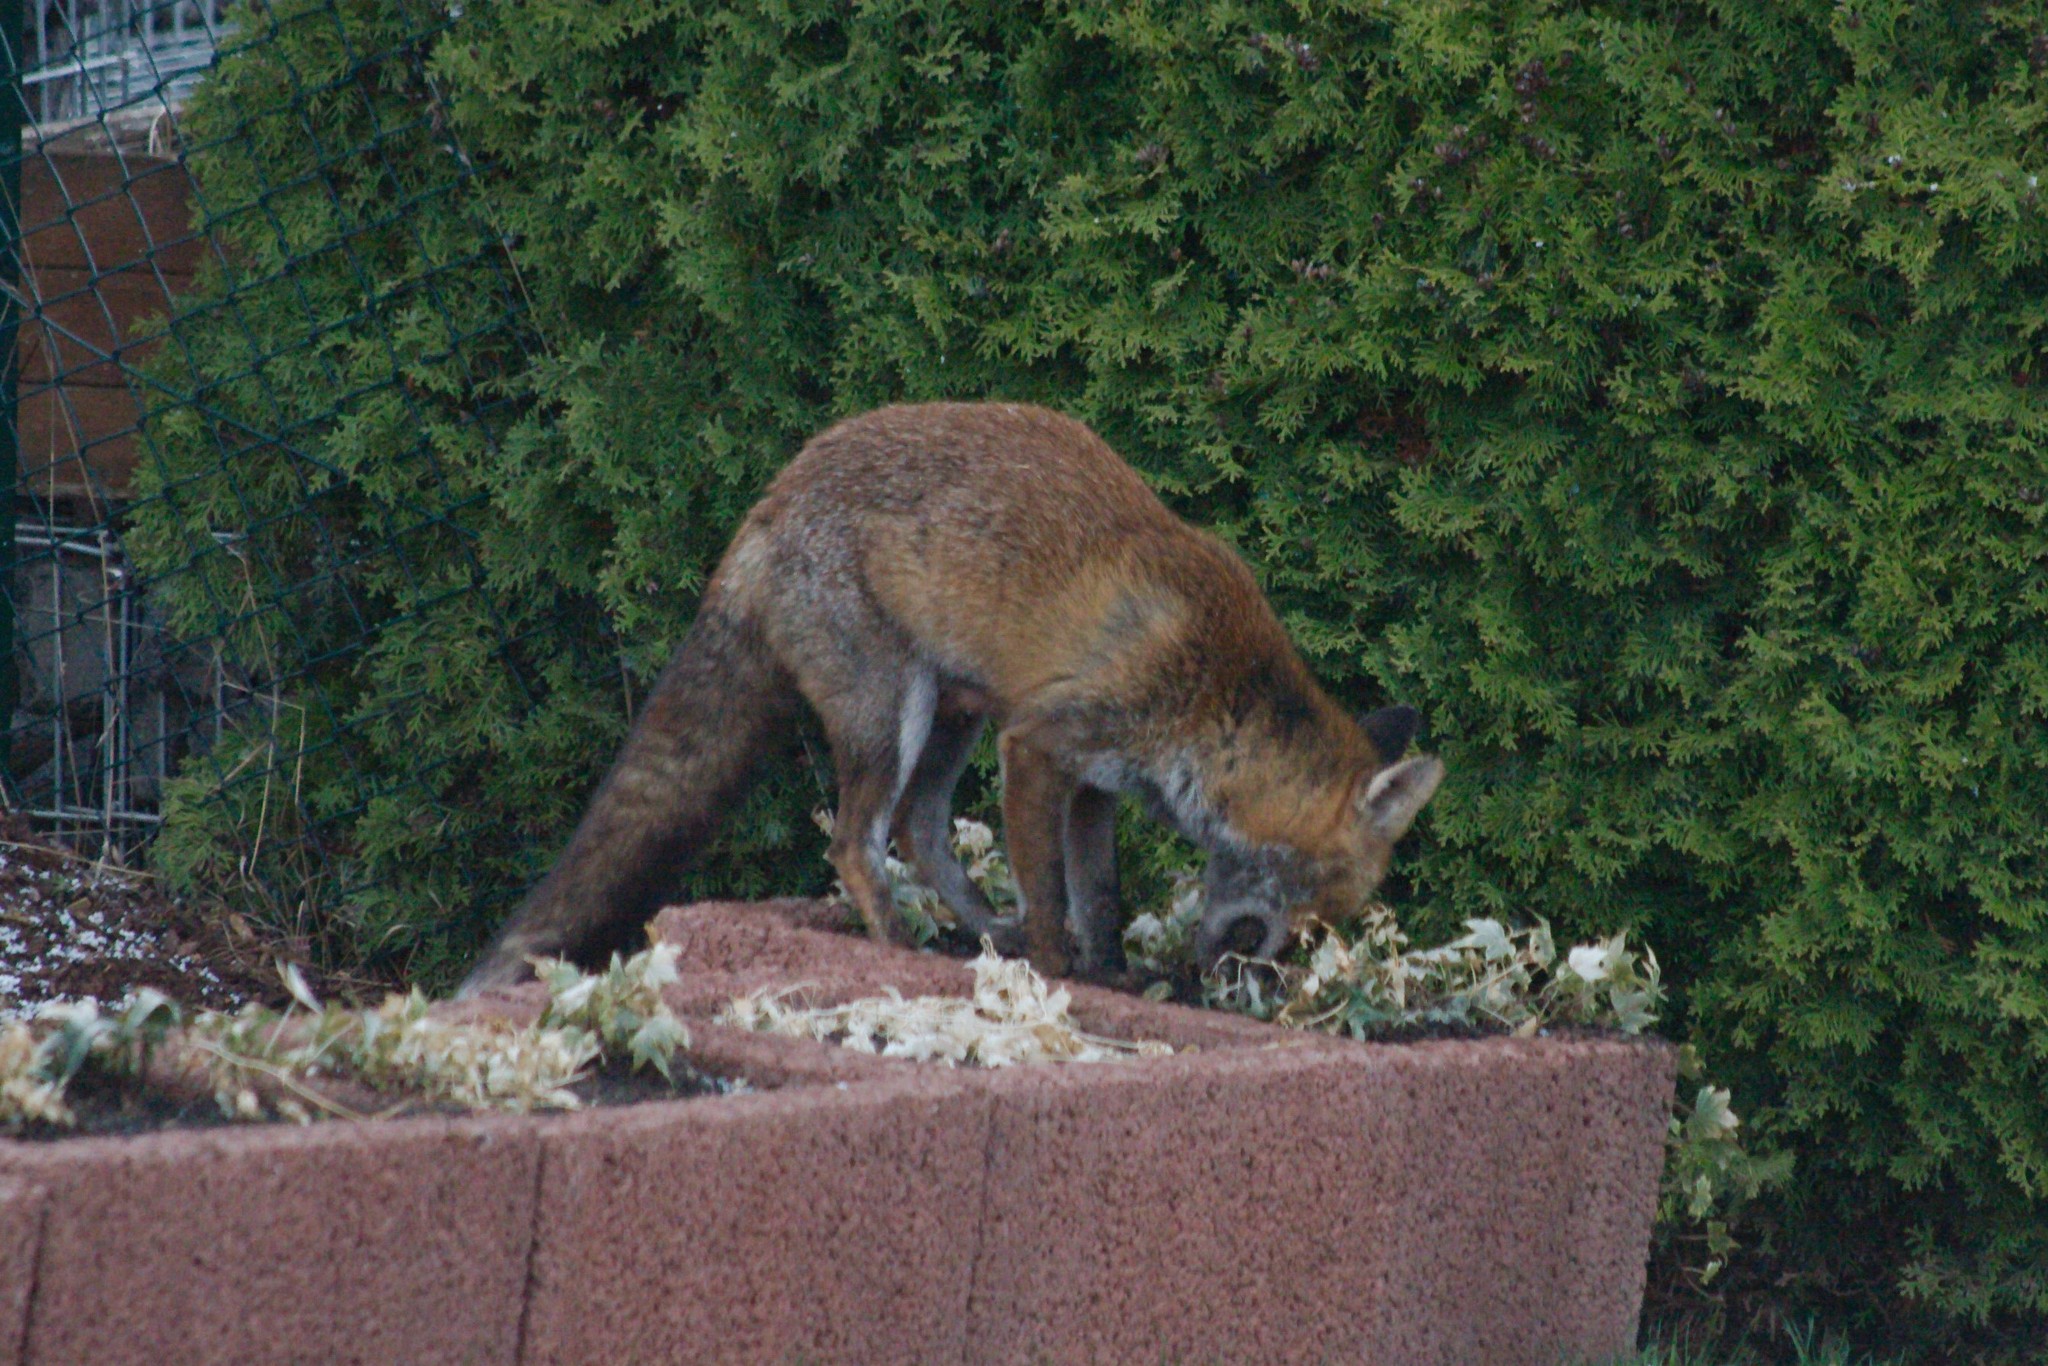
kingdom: Animalia
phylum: Chordata
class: Mammalia
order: Carnivora
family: Canidae
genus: Vulpes
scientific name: Vulpes vulpes
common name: Red fox
